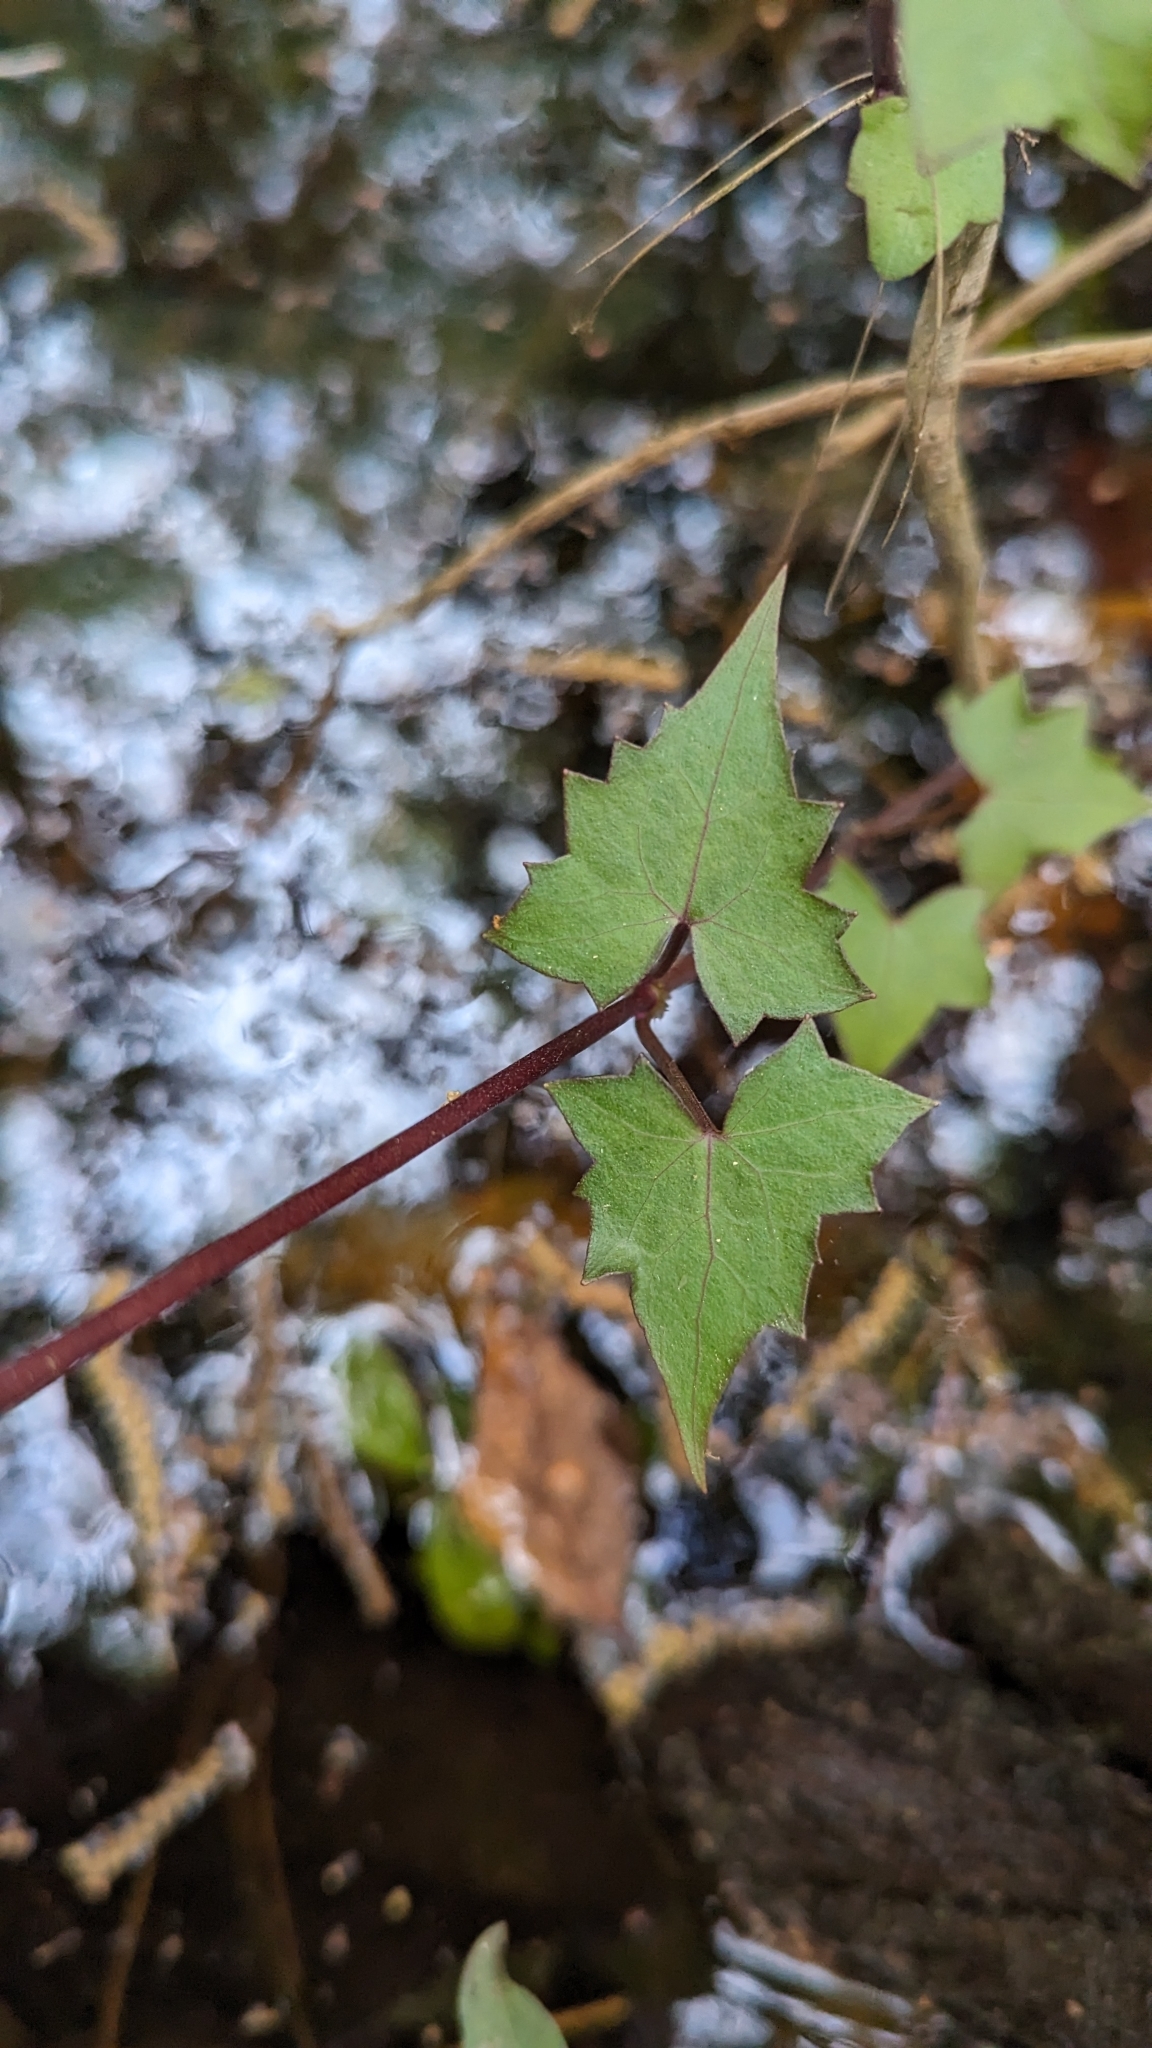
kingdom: Plantae
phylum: Tracheophyta
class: Magnoliopsida
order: Asterales
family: Asteraceae
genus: Mikania
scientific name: Mikania scandens
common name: Climbing hempvine
